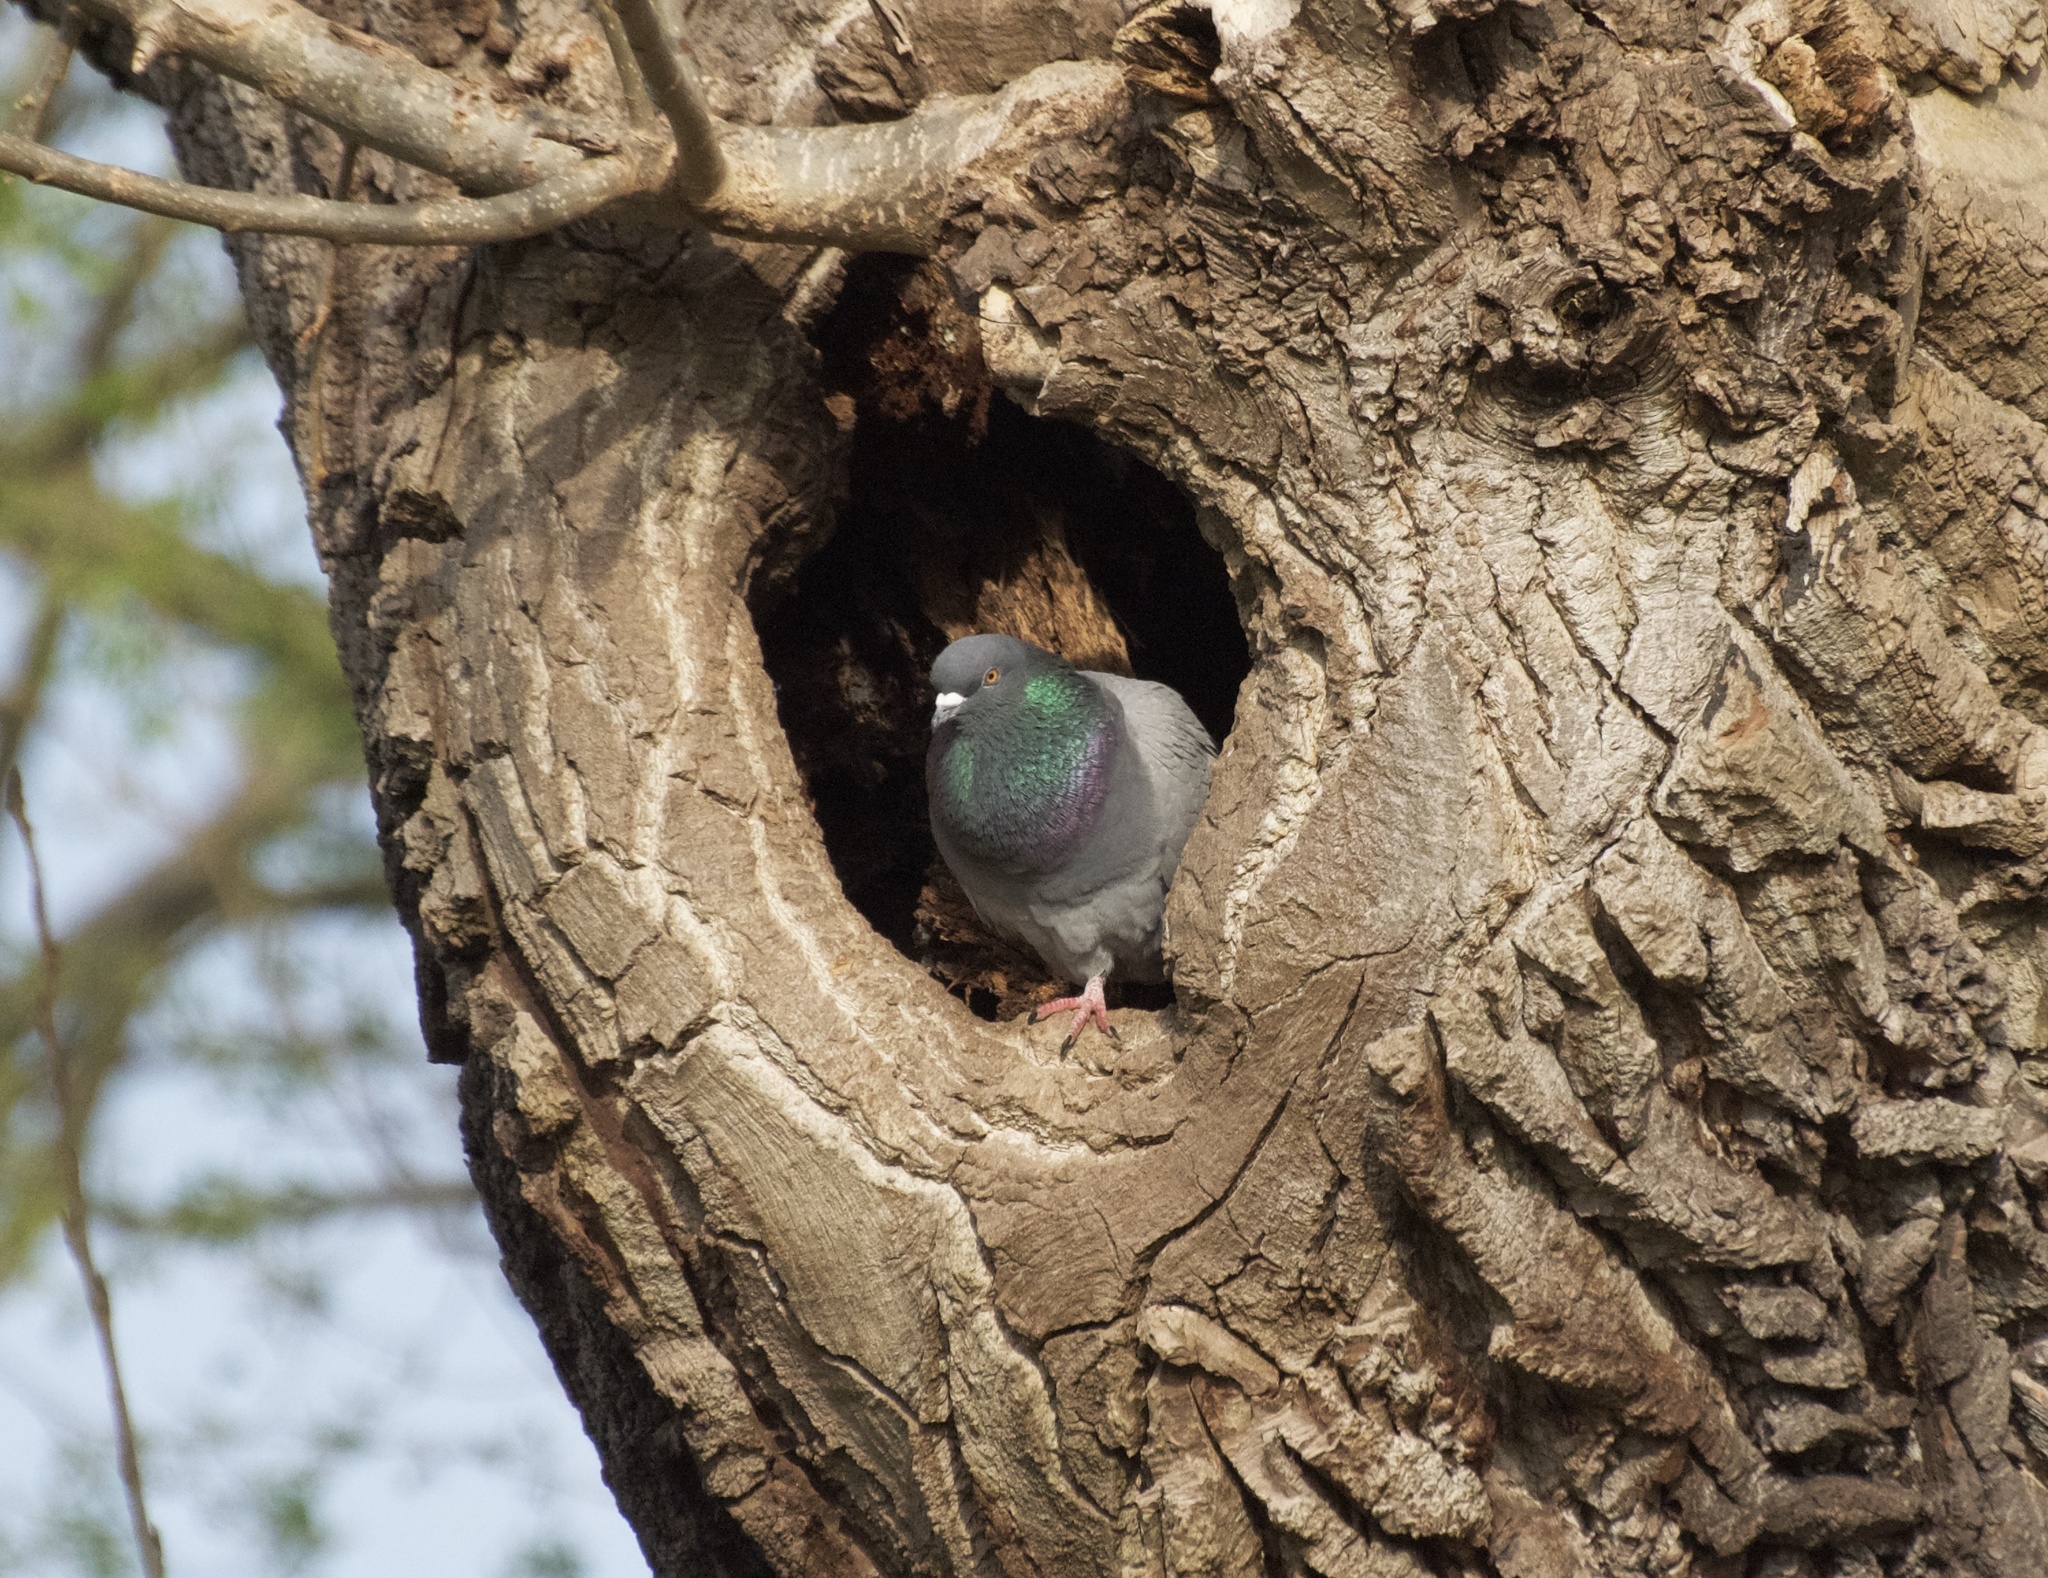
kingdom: Animalia
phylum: Chordata
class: Aves
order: Columbiformes
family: Columbidae
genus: Columba
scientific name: Columba livia
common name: Rock pigeon
